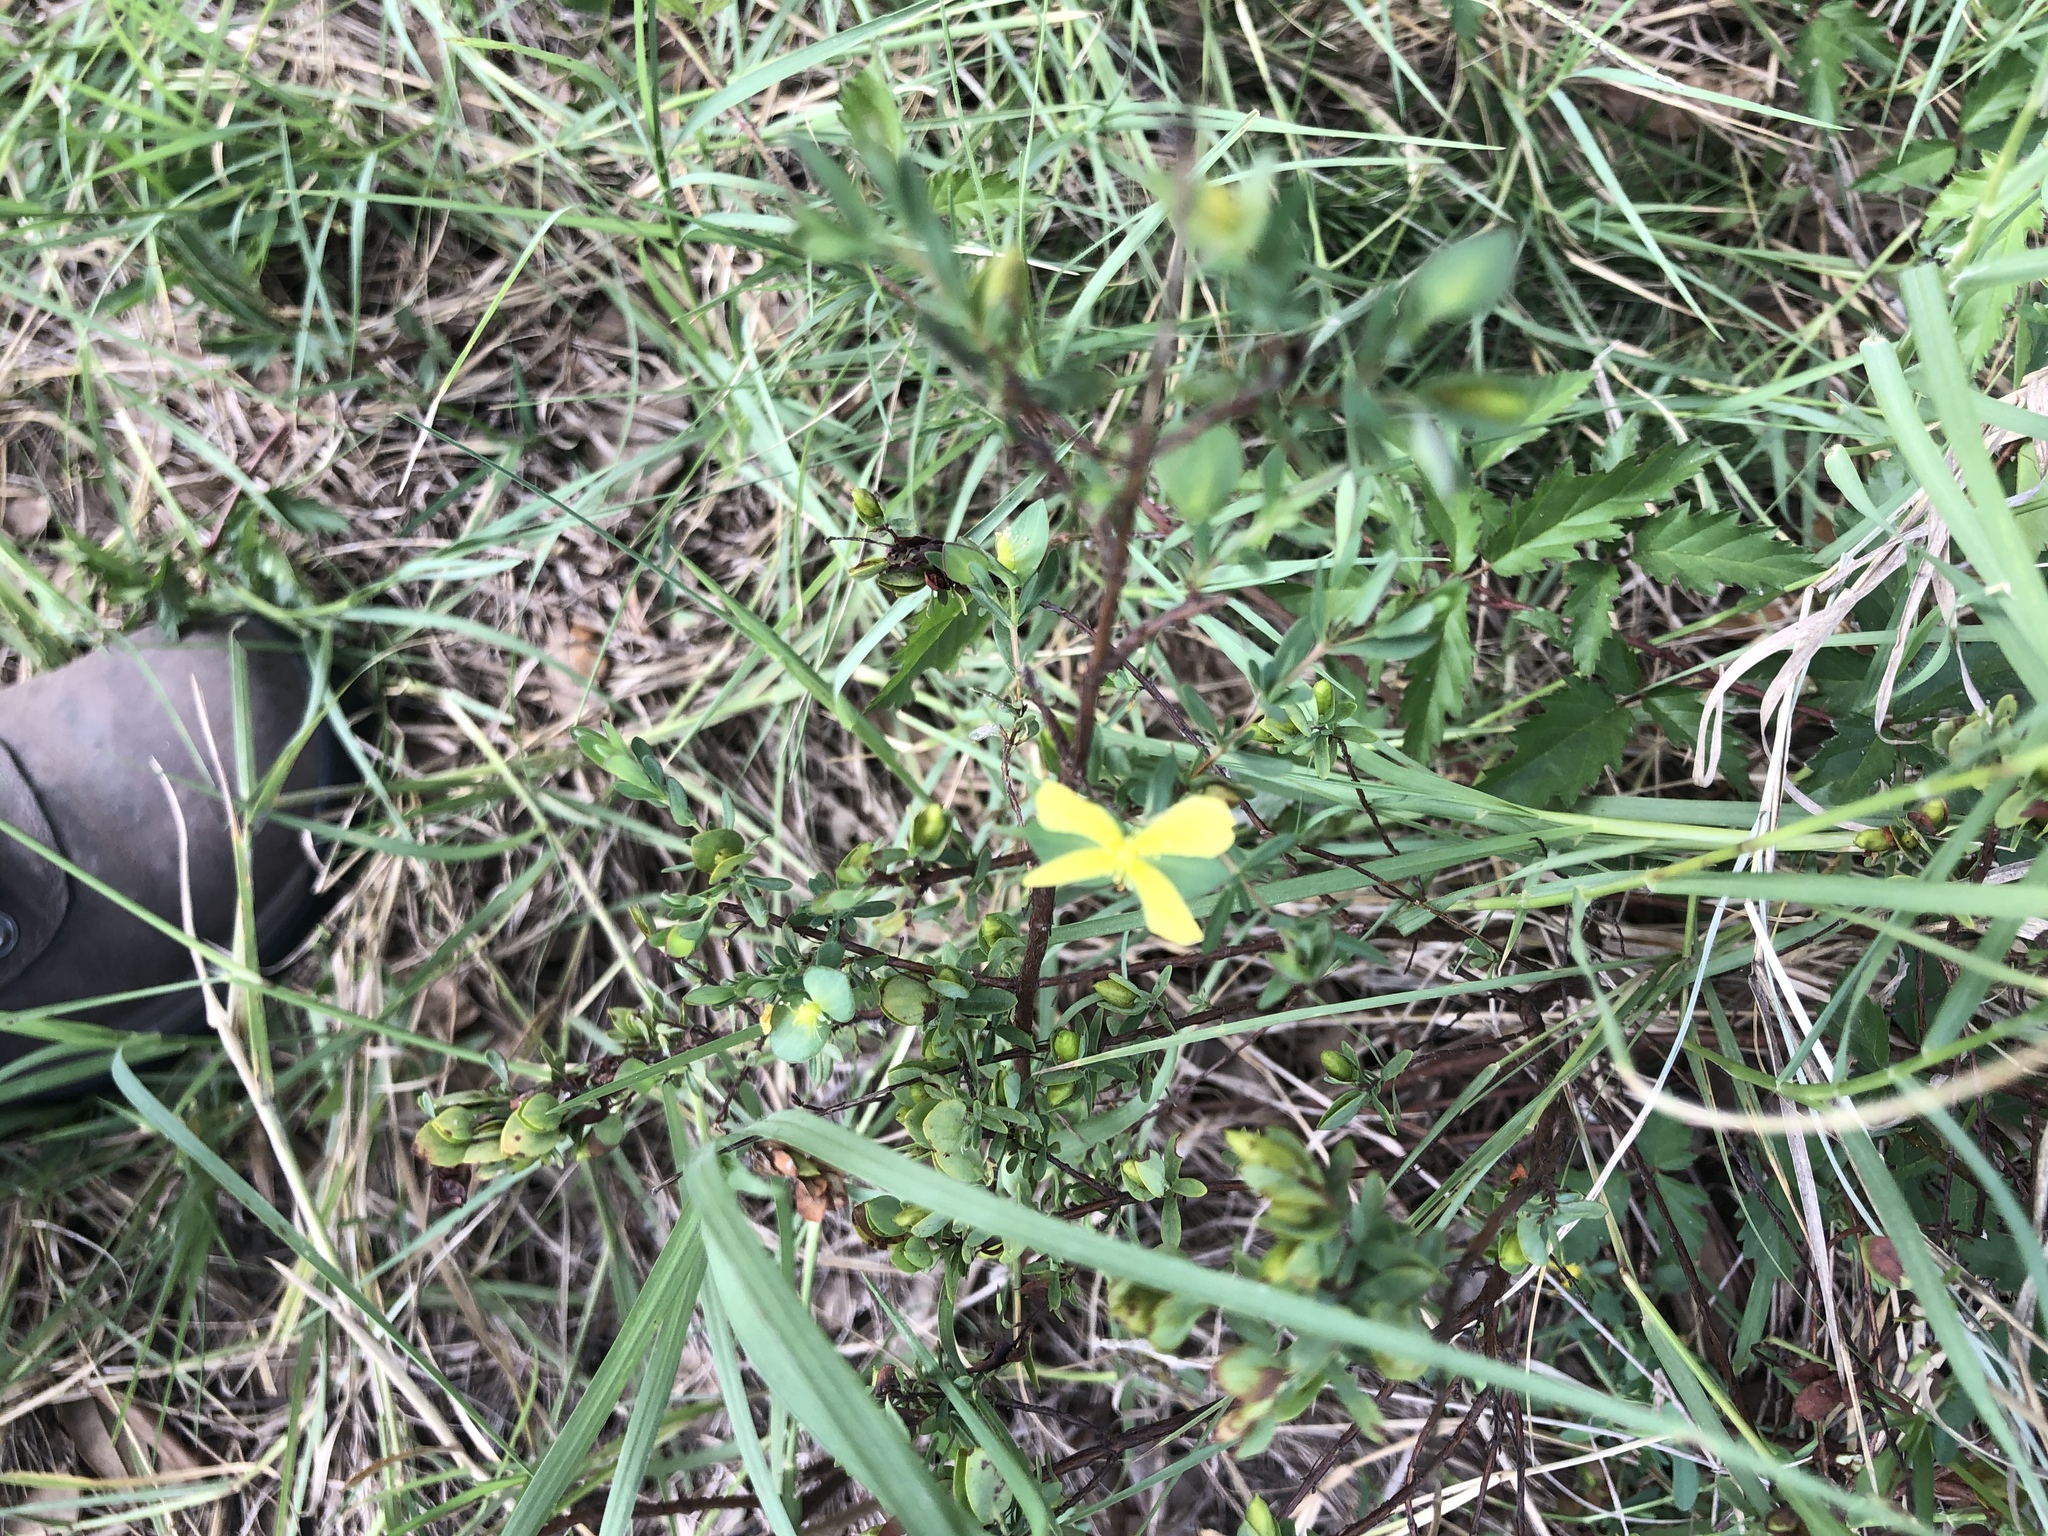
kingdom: Plantae
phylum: Tracheophyta
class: Magnoliopsida
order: Malpighiales
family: Hypericaceae
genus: Hypericum
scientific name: Hypericum hypericoides
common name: St. andrew's cross
